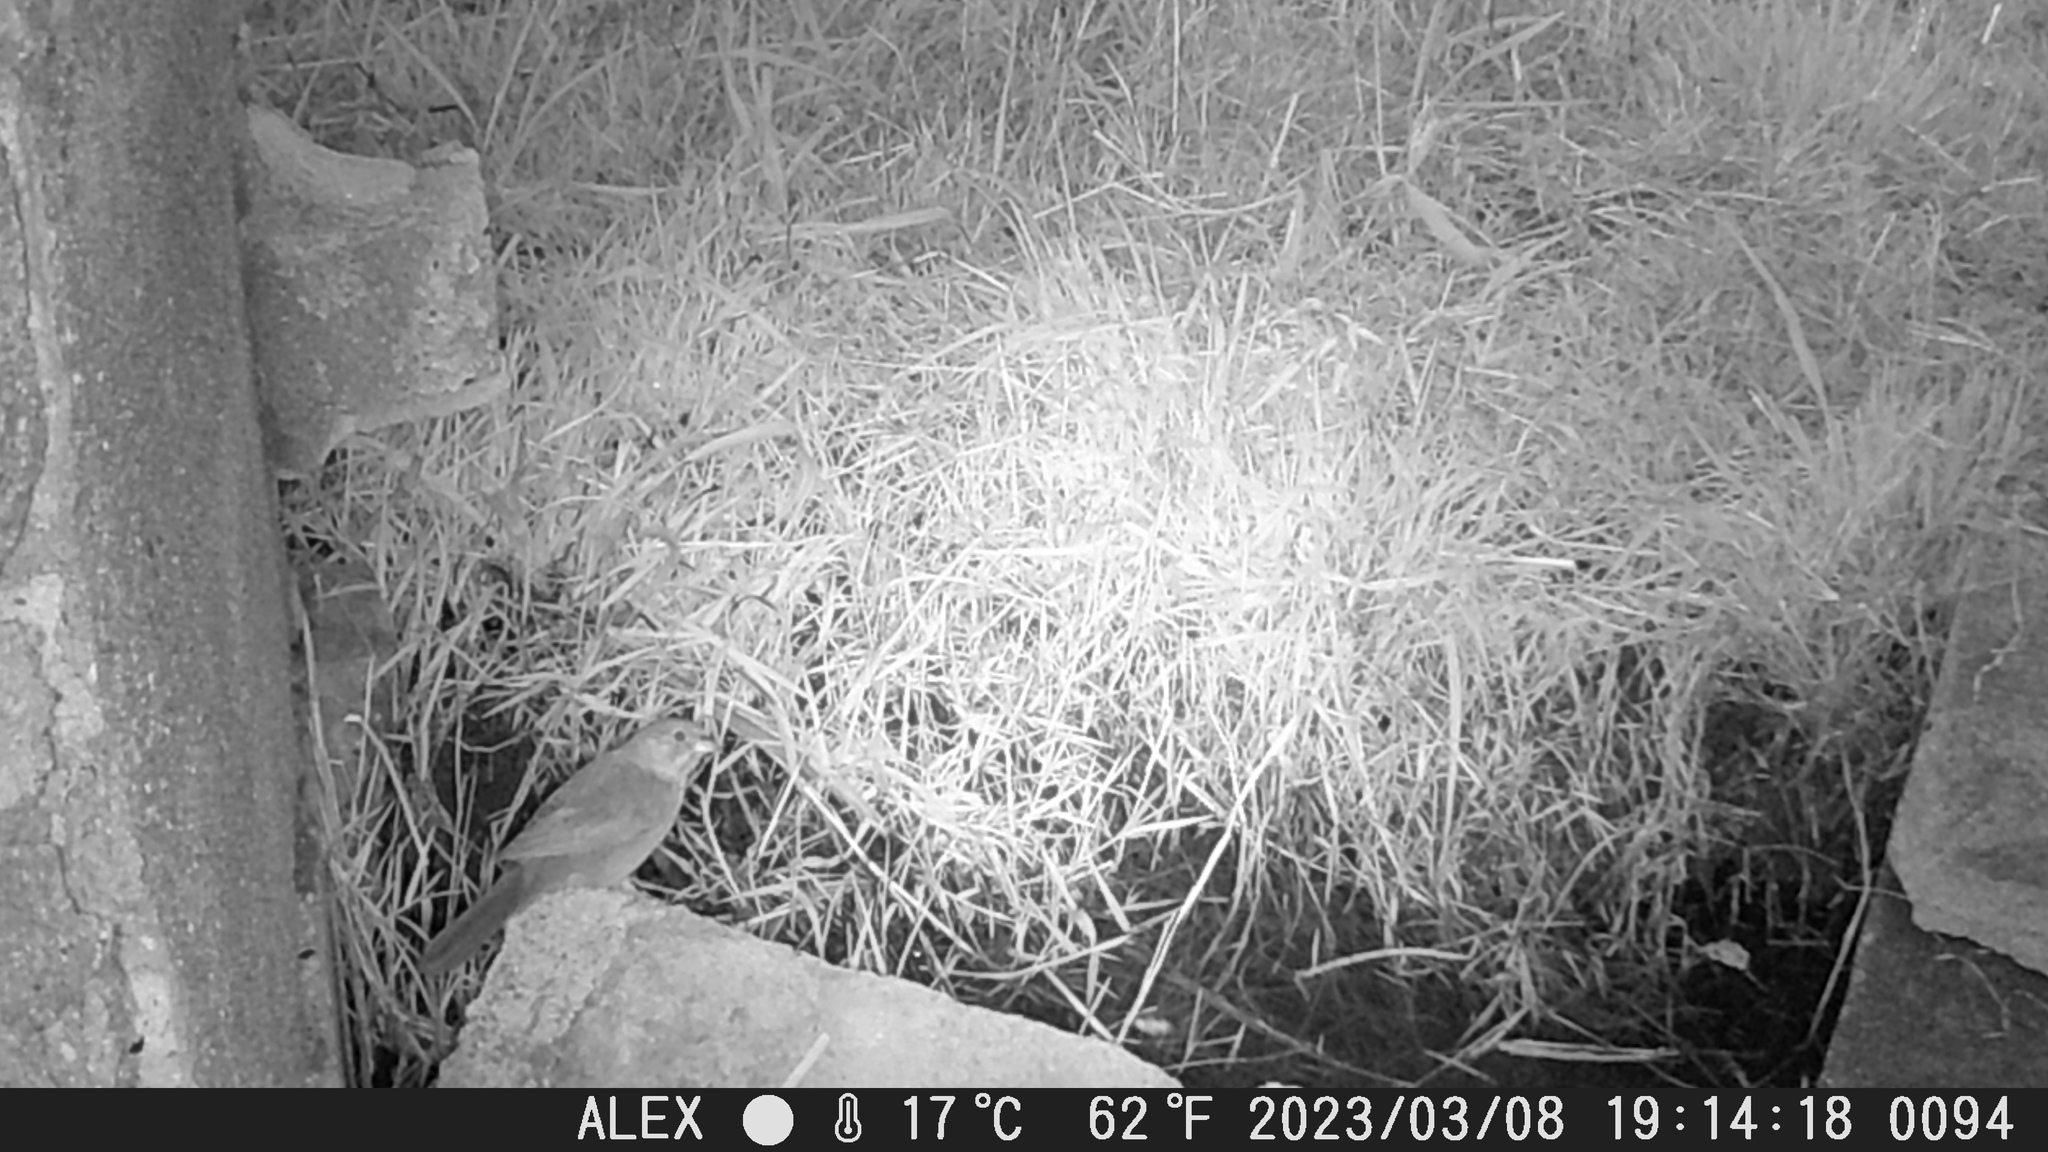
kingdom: Animalia
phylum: Chordata
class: Aves
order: Passeriformes
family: Passerellidae
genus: Melozone
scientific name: Melozone fusca
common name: Canyon towhee
